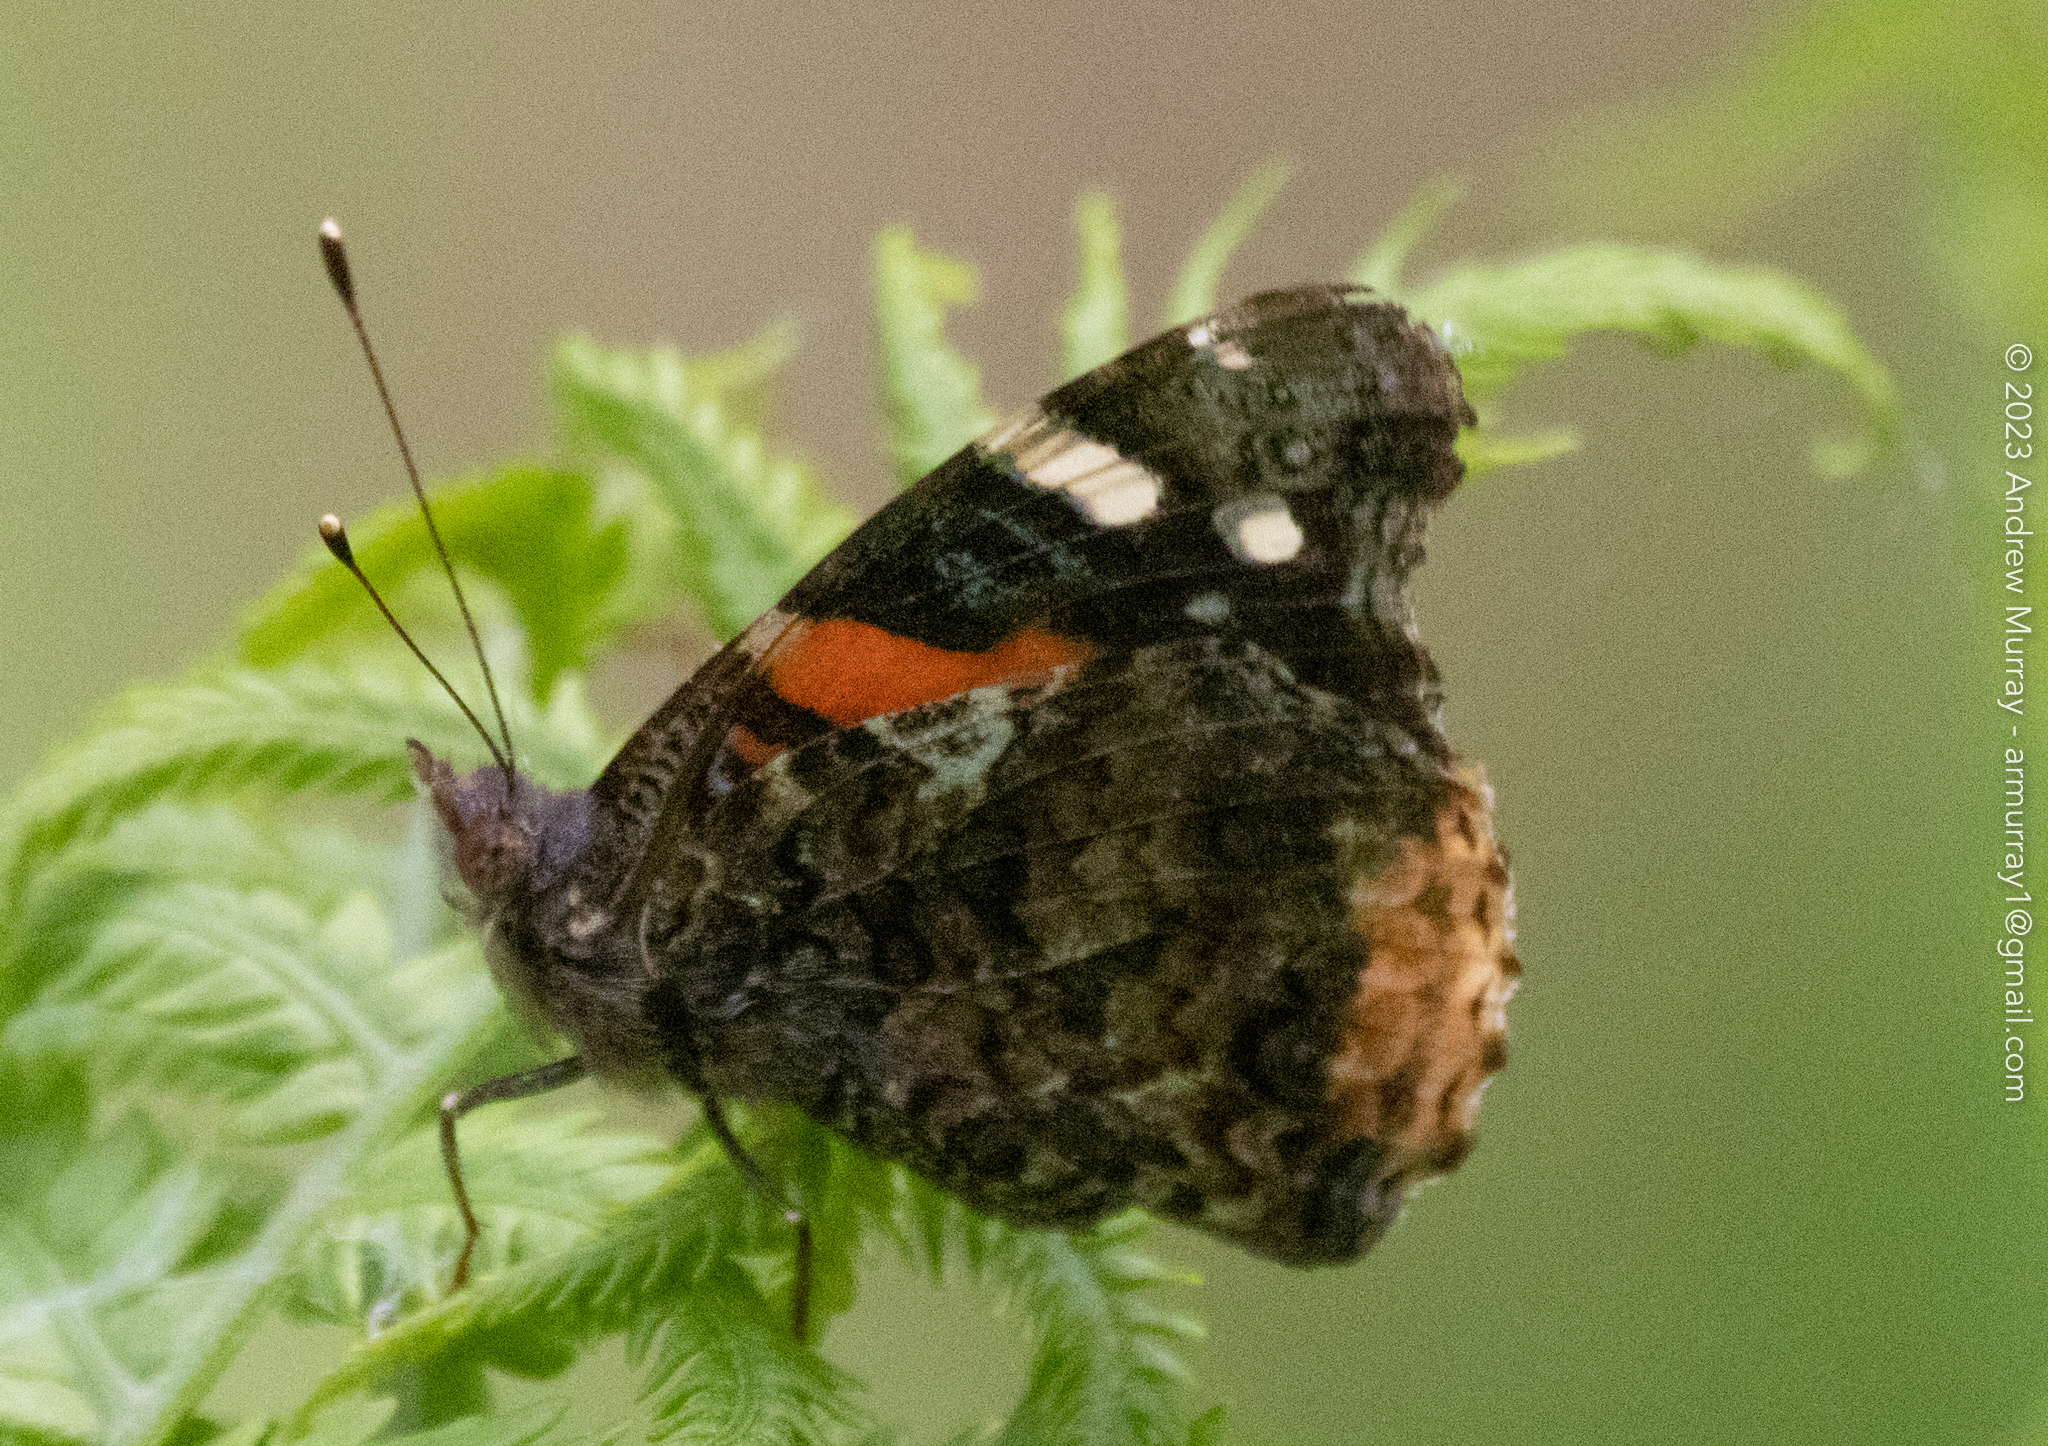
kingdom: Animalia
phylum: Arthropoda
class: Insecta
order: Lepidoptera
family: Nymphalidae
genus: Vanessa
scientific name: Vanessa atalanta
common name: Red admiral
